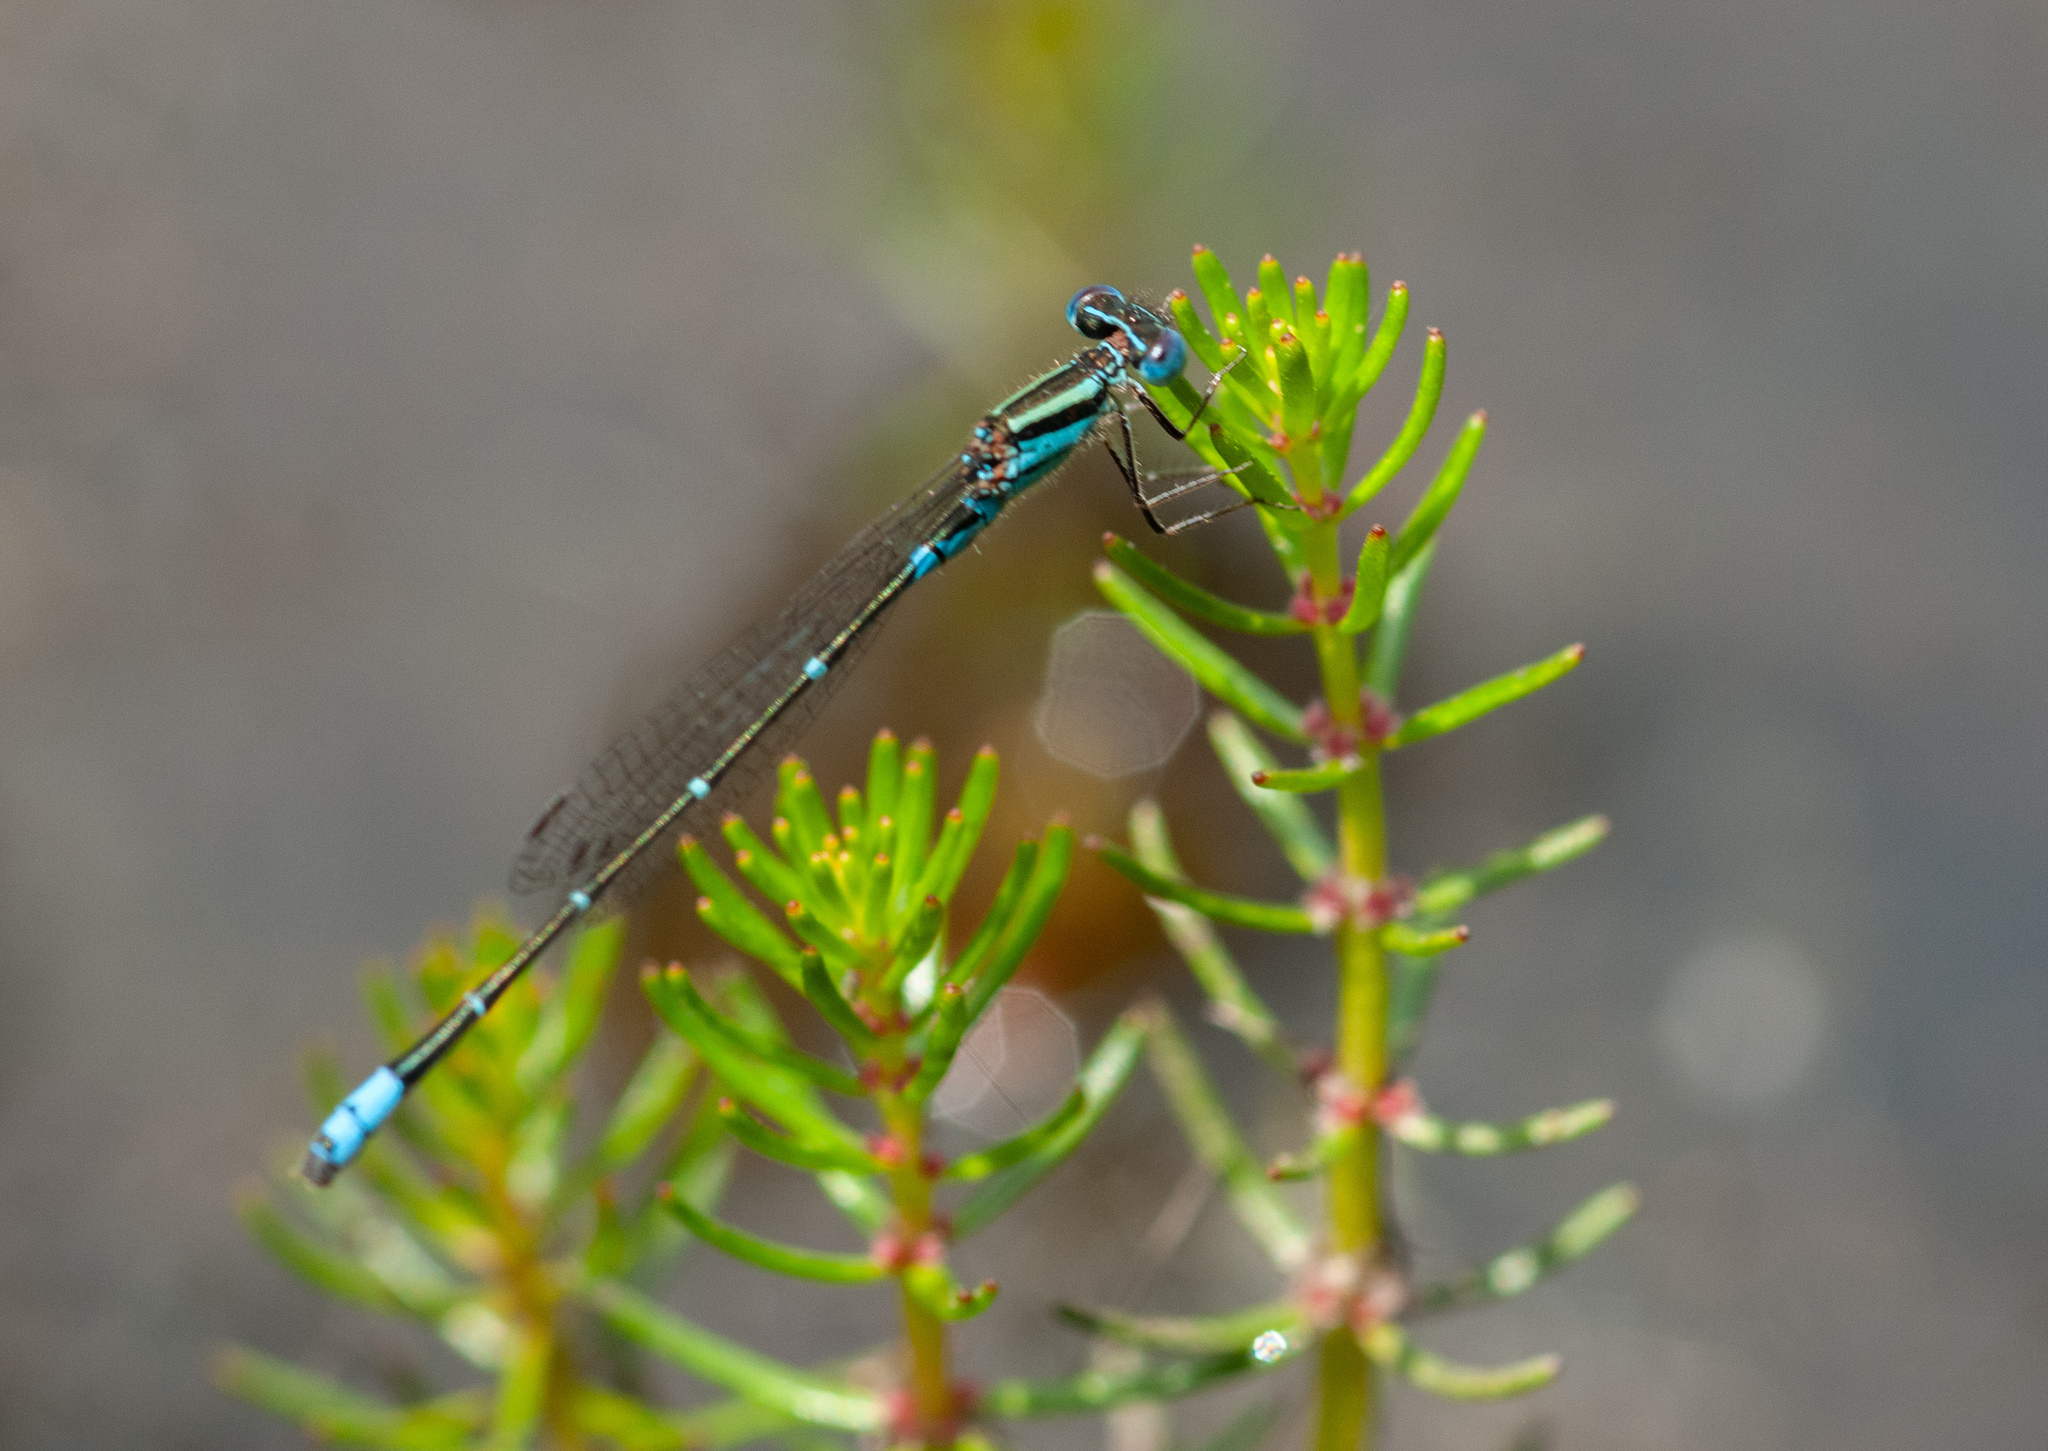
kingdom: Animalia
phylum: Arthropoda
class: Insecta
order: Odonata
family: Coenagrionidae
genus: Austroagrion
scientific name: Austroagrion watsoni
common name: Eastern billabongfly
